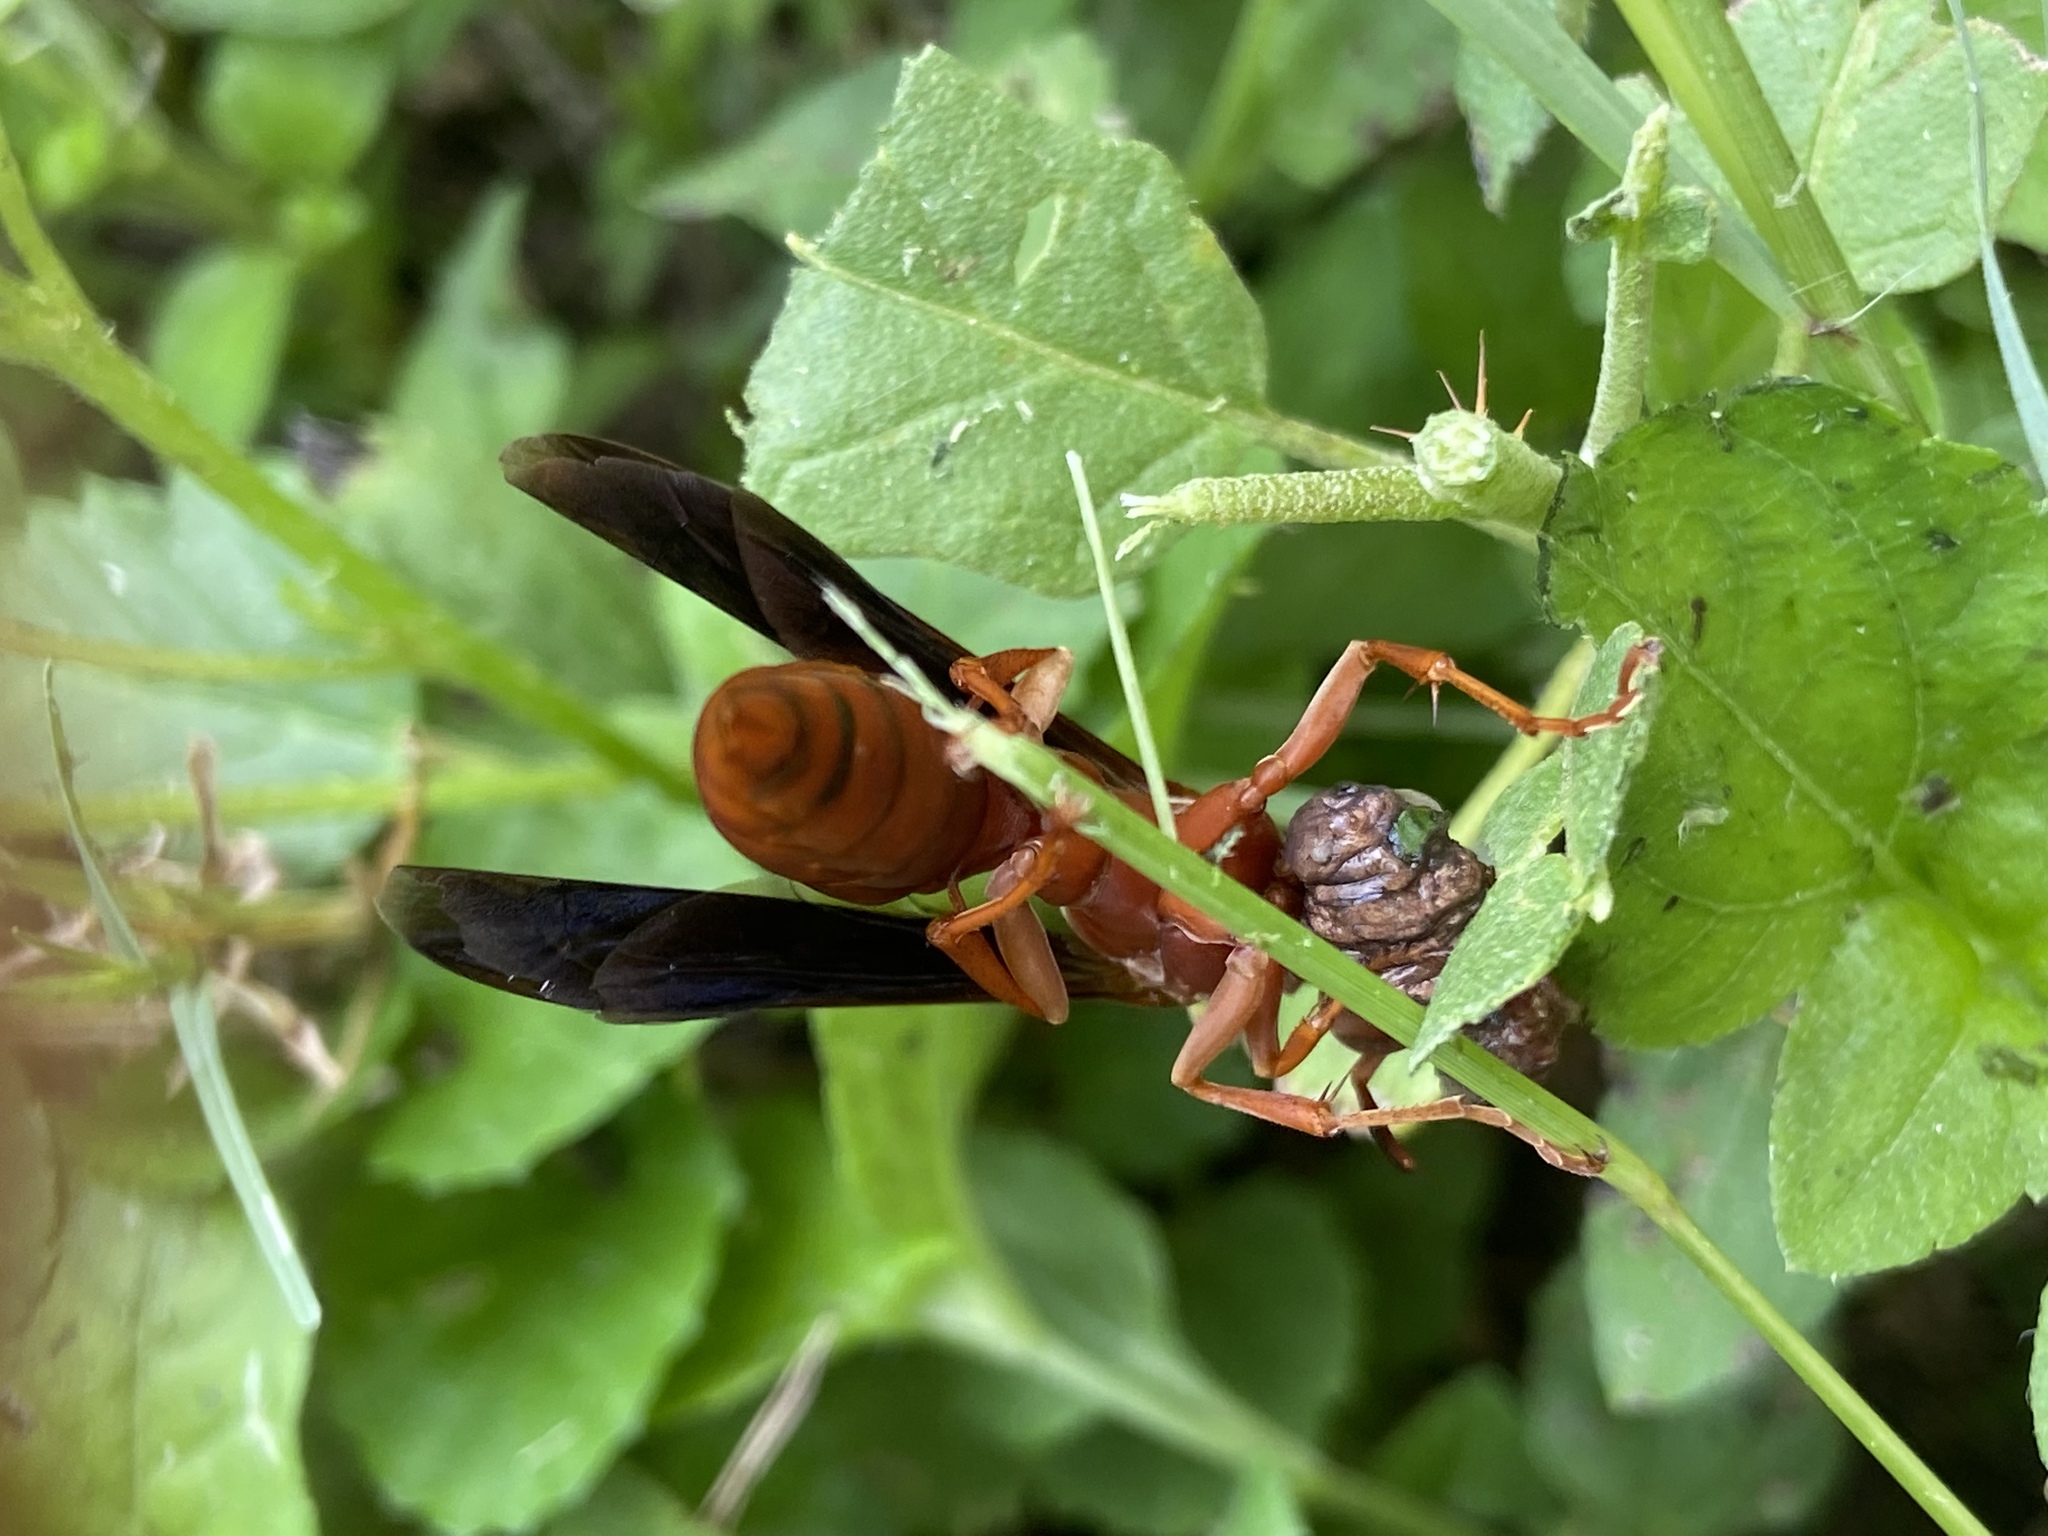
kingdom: Animalia
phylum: Arthropoda
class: Insecta
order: Hymenoptera
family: Vespidae
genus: Fuscopolistes
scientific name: Fuscopolistes
